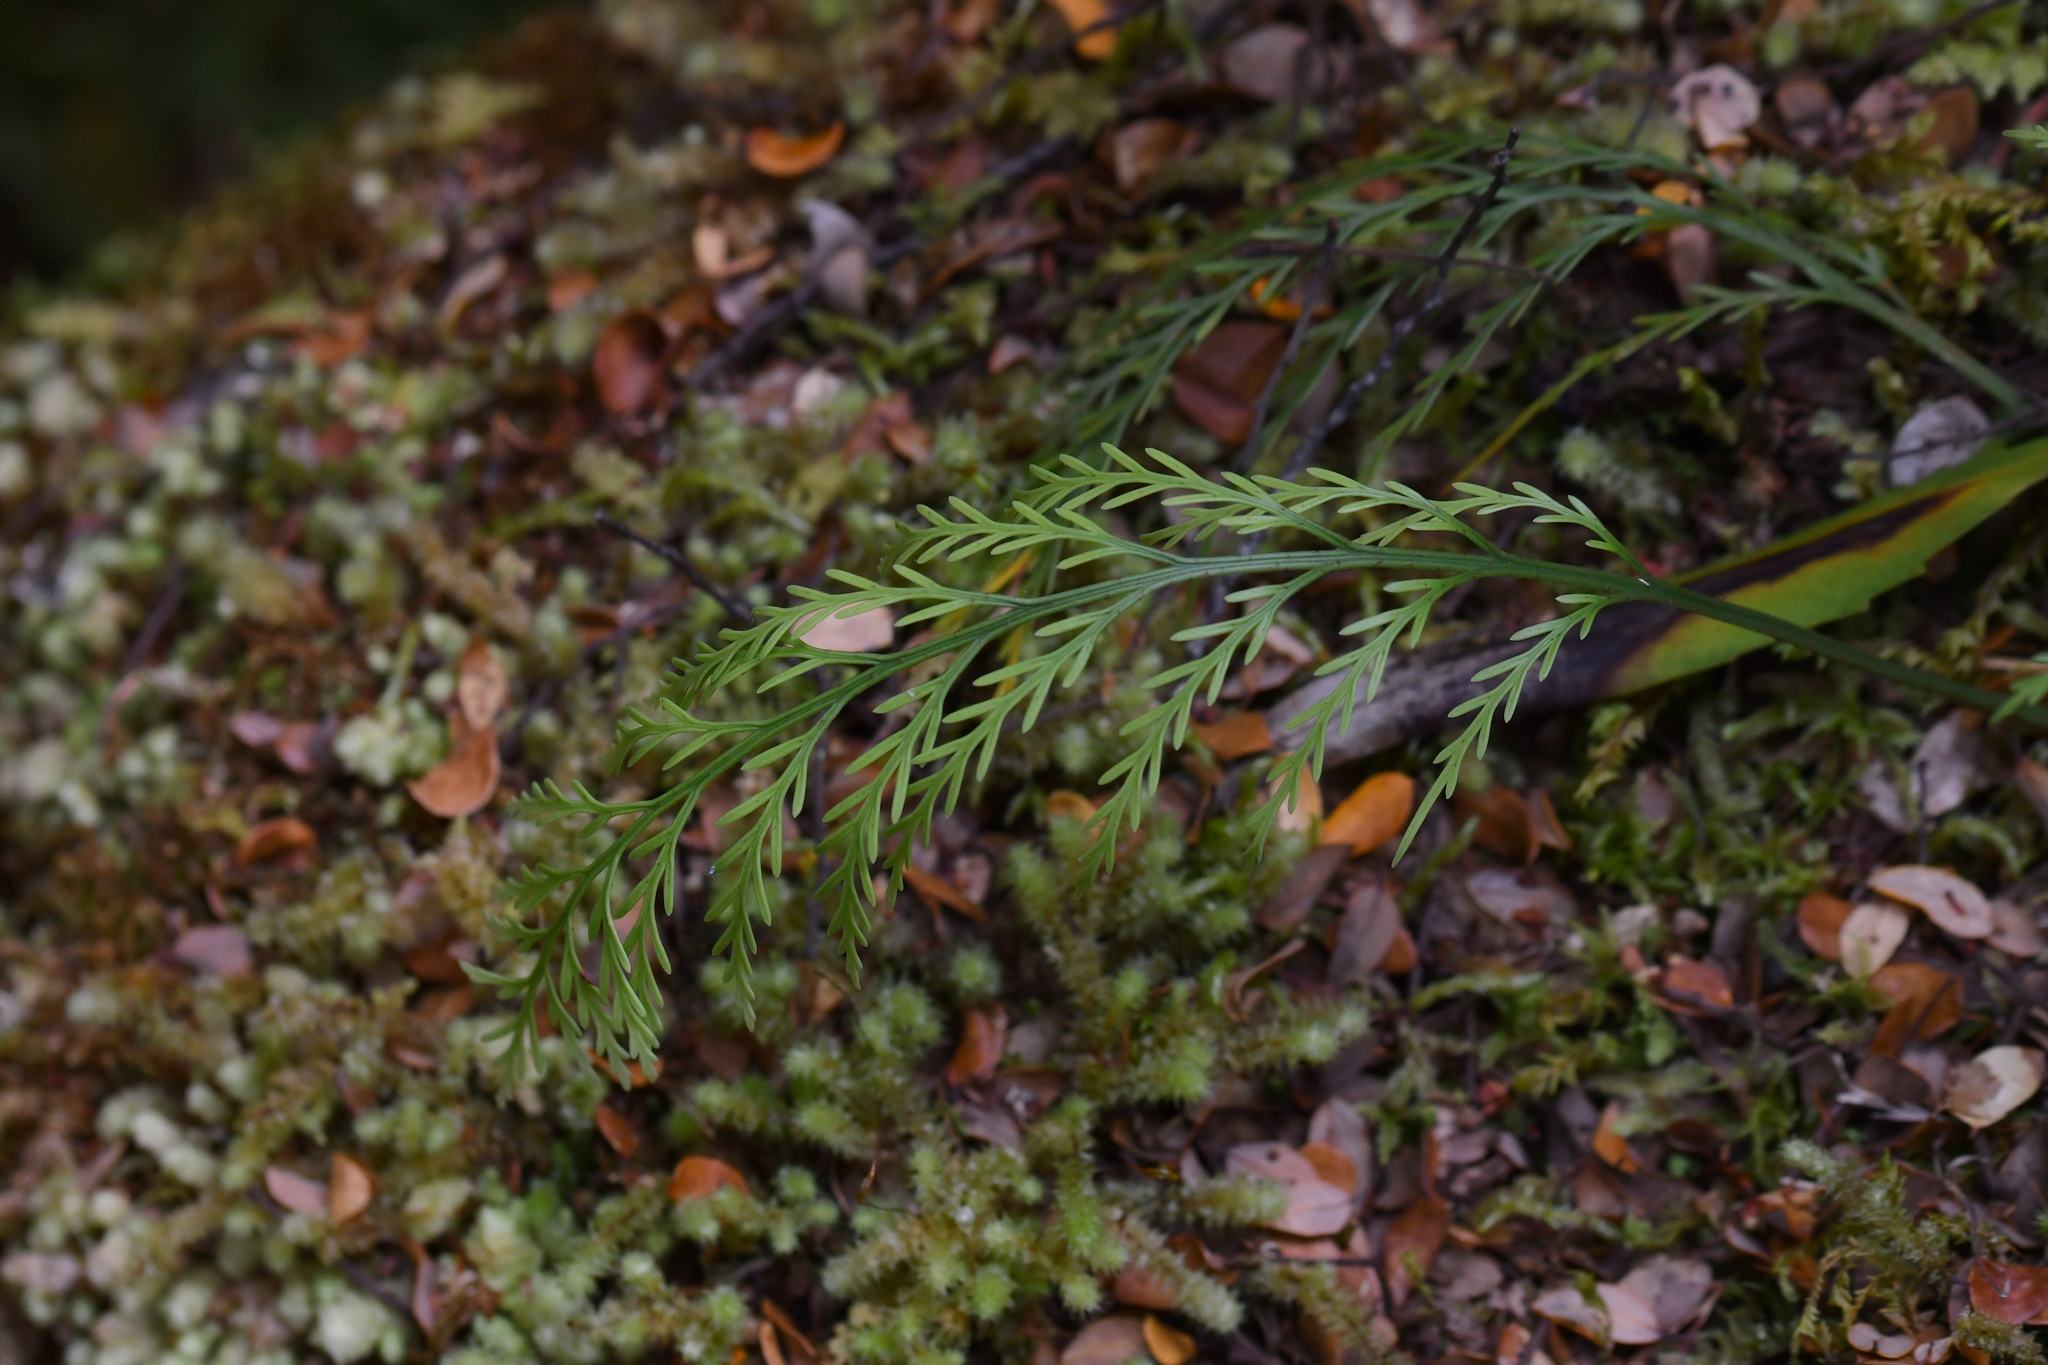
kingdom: Plantae
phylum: Tracheophyta
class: Polypodiopsida
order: Polypodiales
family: Aspleniaceae
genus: Asplenium
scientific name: Asplenium flaccidum
